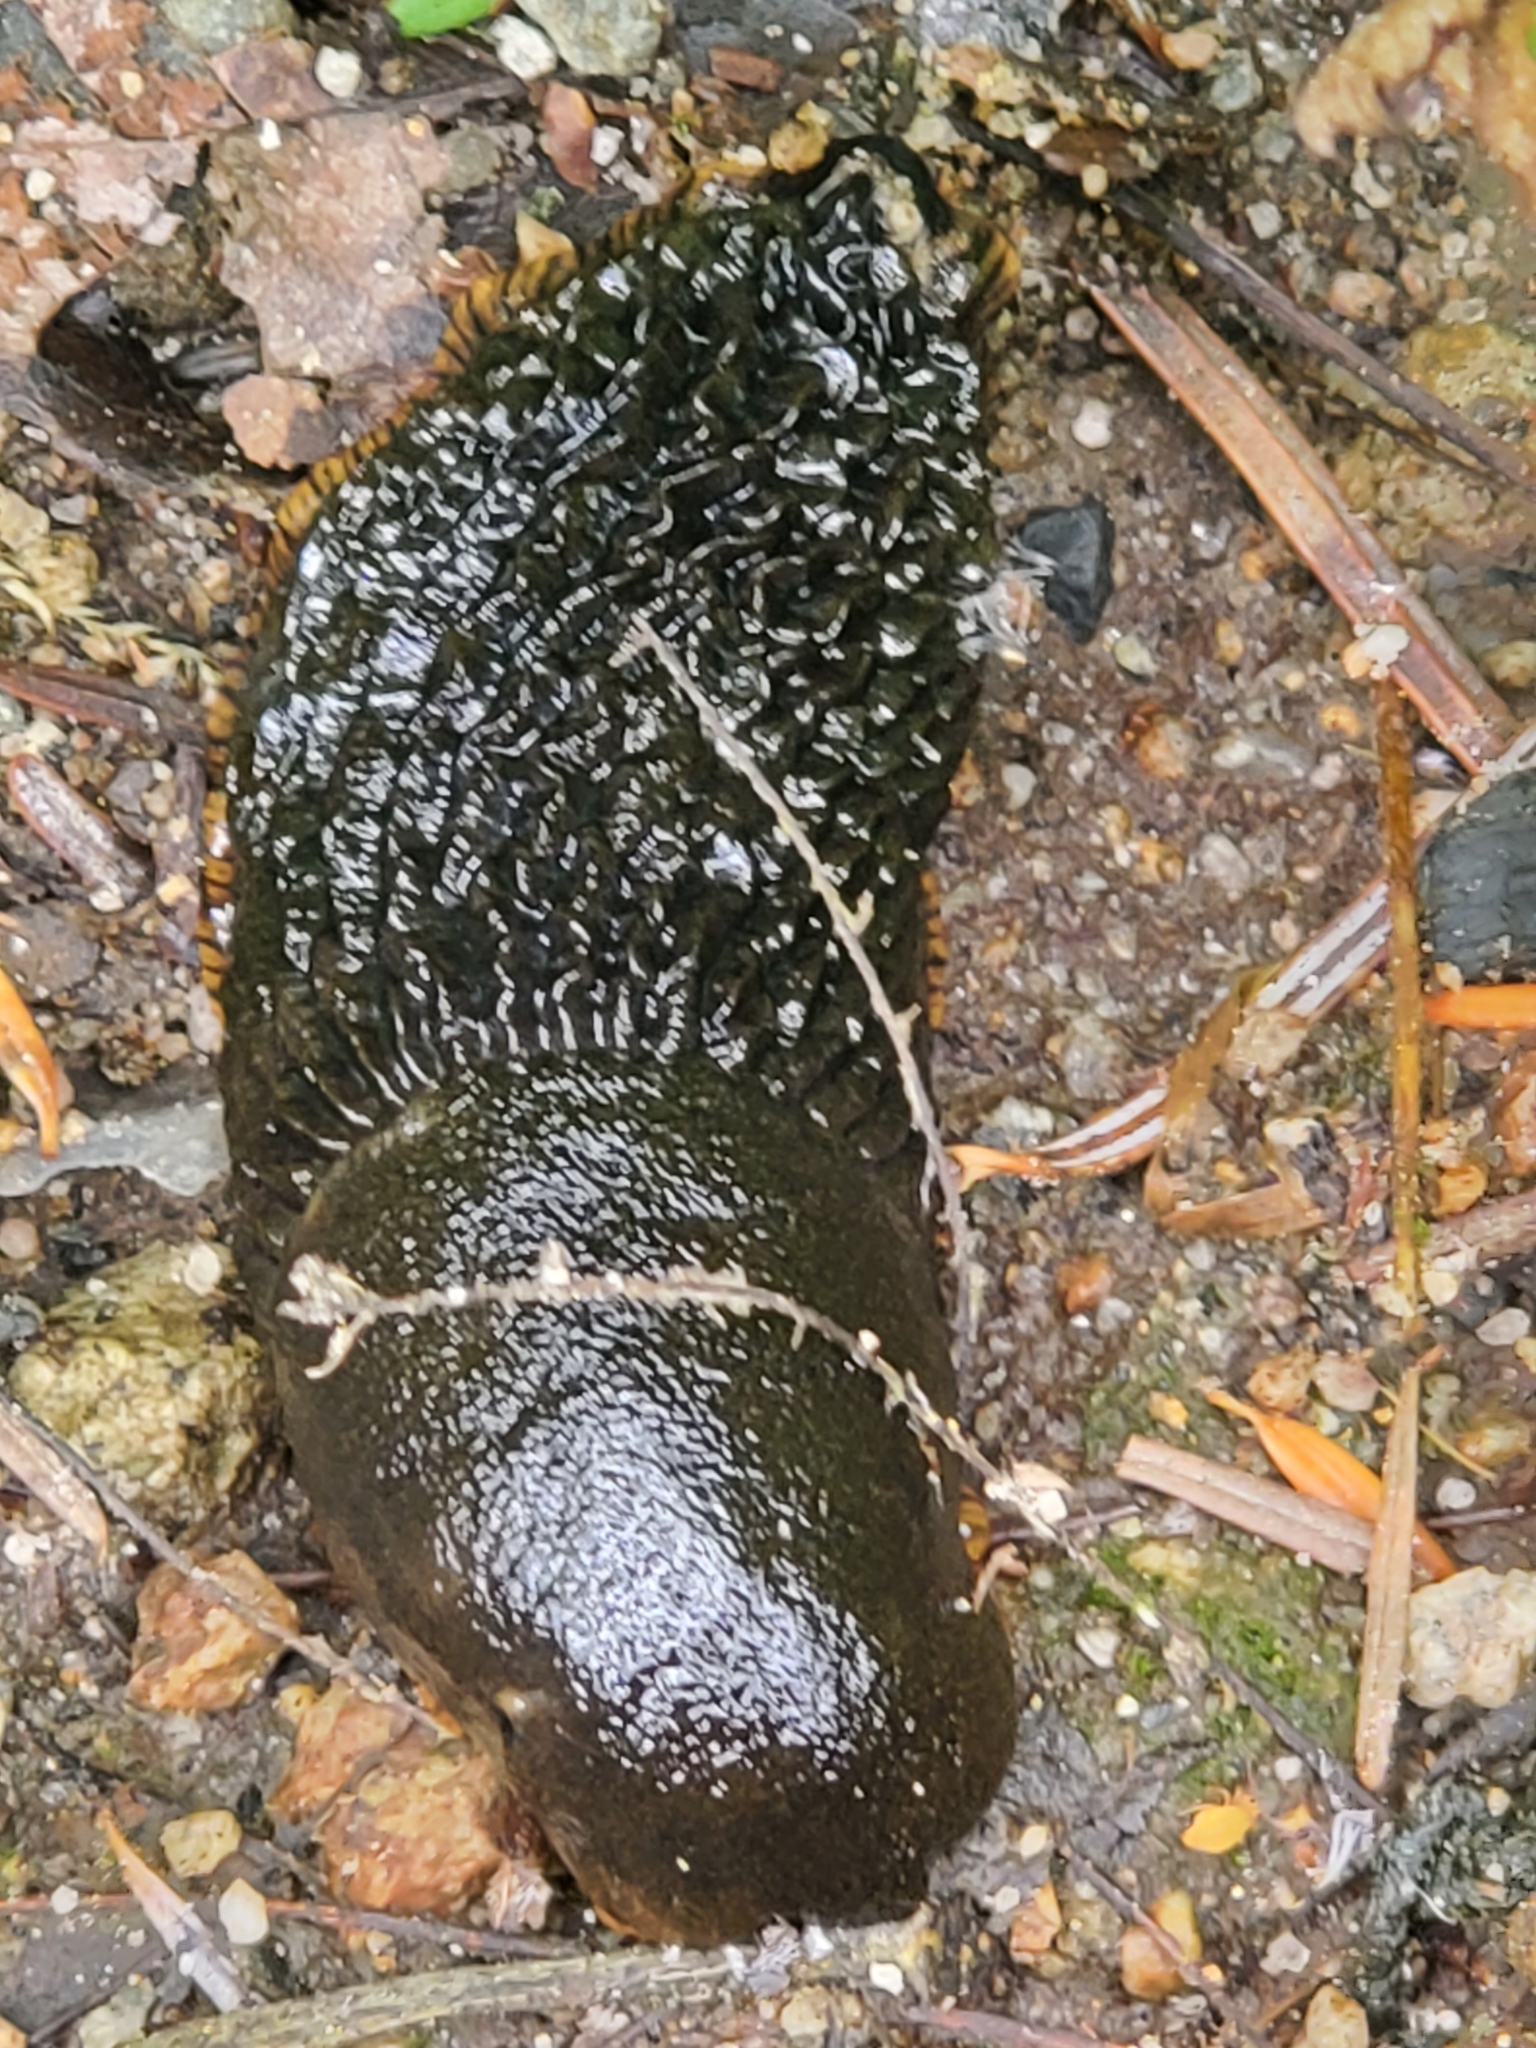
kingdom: Animalia
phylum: Mollusca
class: Gastropoda
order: Stylommatophora
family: Arionidae
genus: Arion
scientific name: Arion
